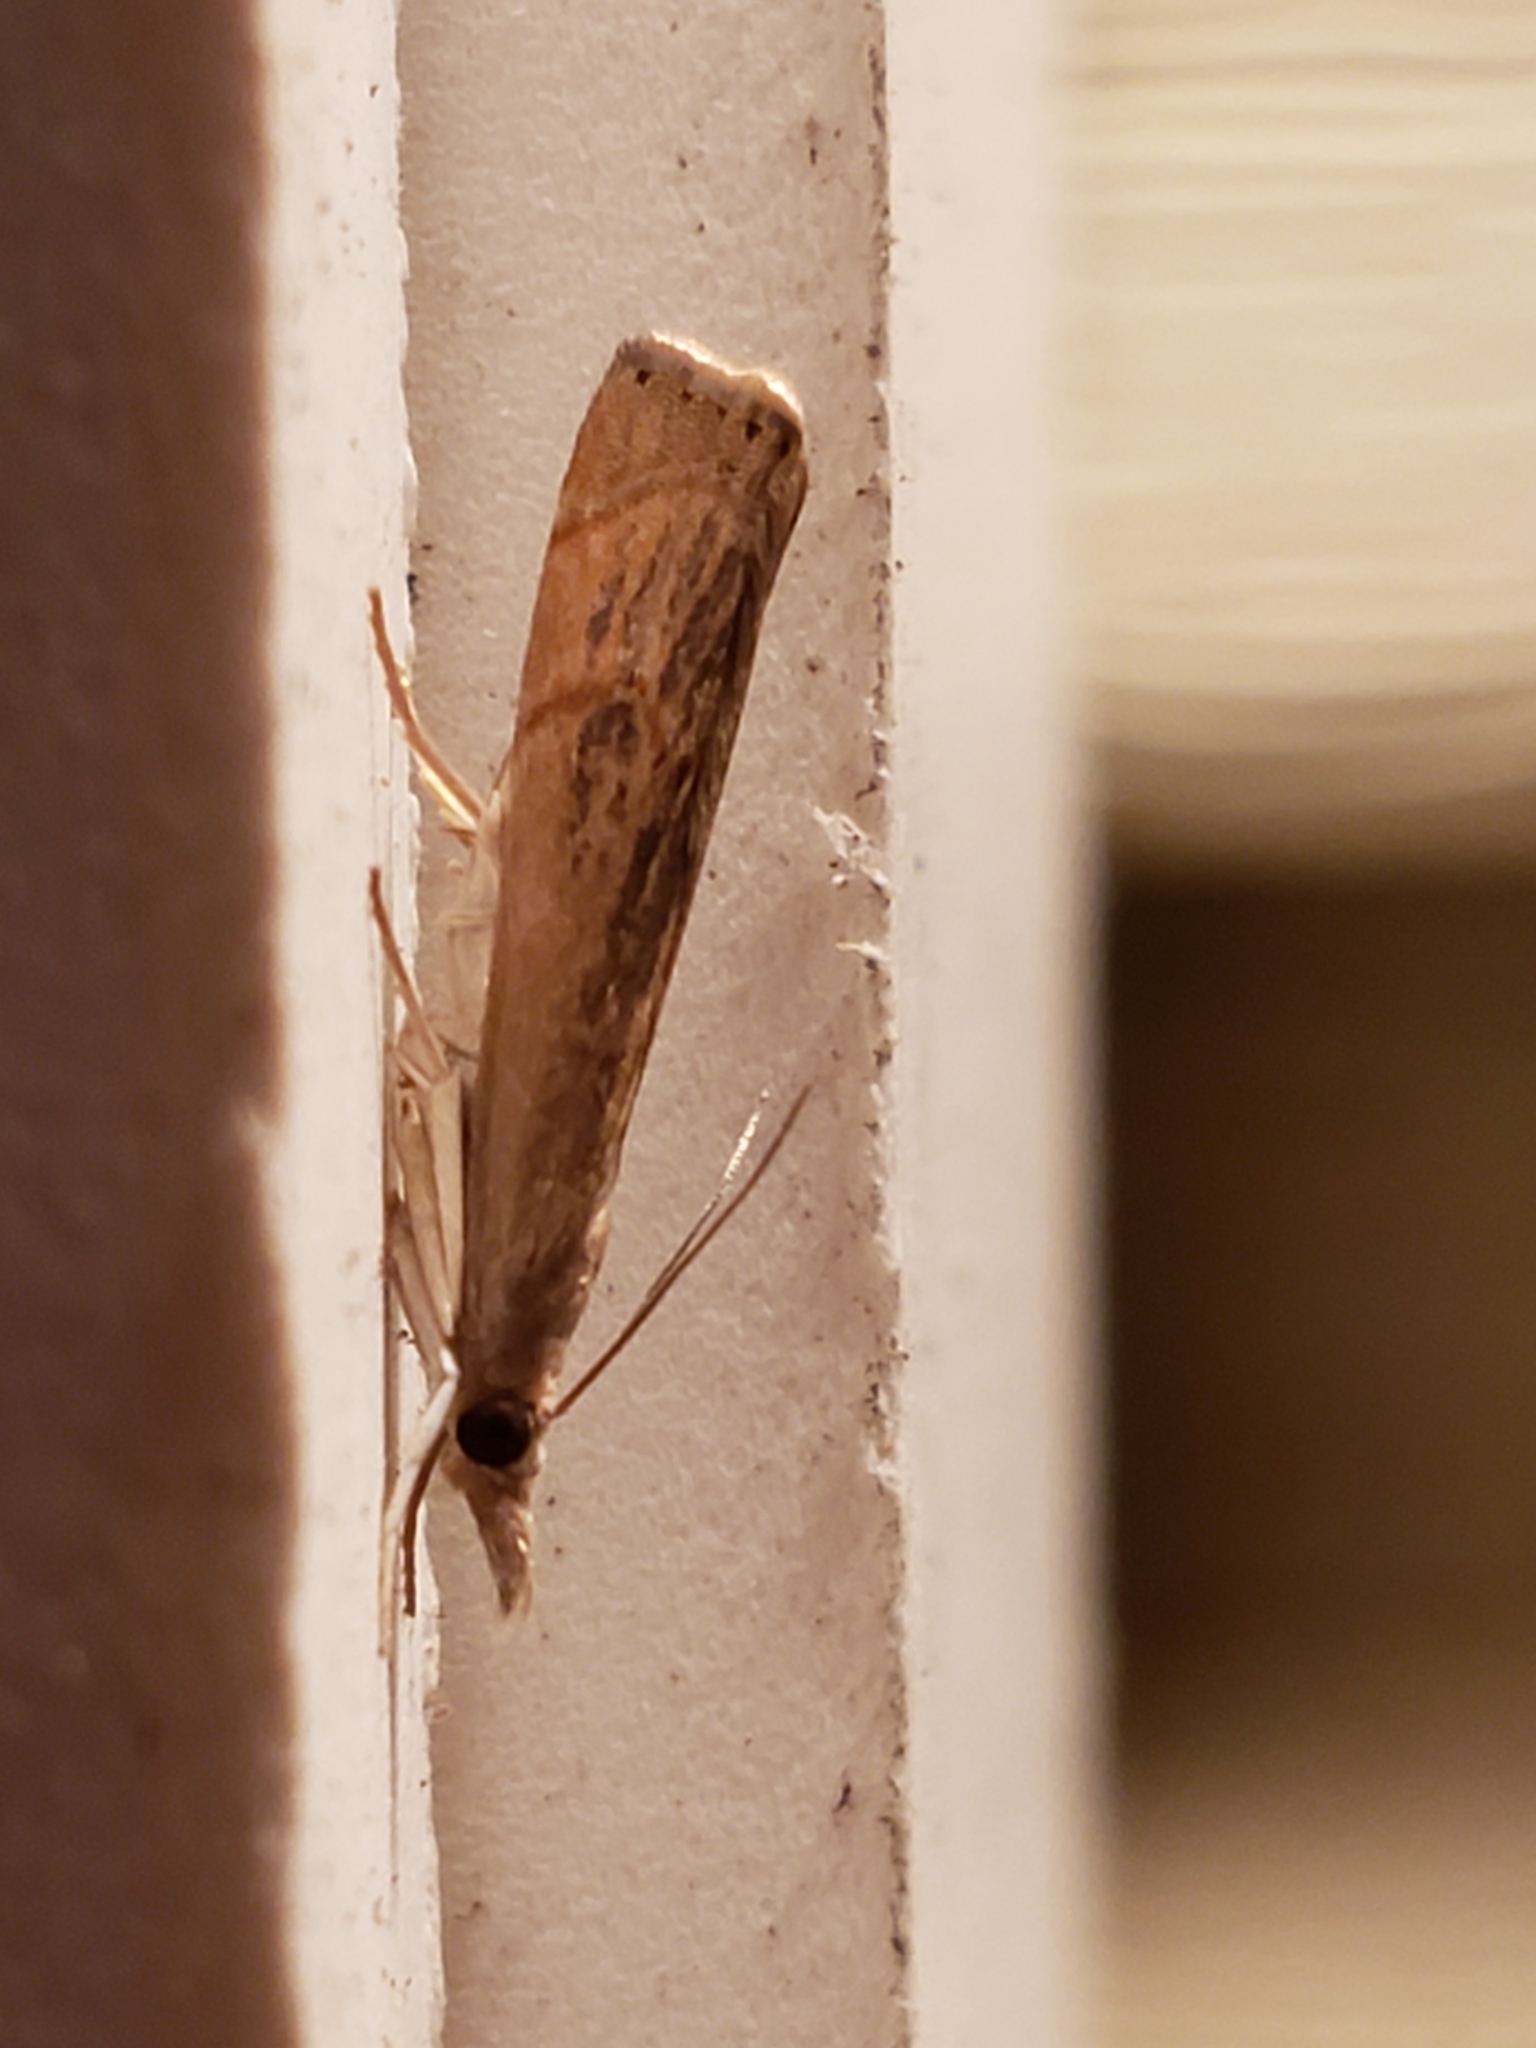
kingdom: Animalia
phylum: Arthropoda
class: Insecta
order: Lepidoptera
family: Crambidae
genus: Parapediasia
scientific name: Parapediasia teterellus
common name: Bluegrass webworm moth
